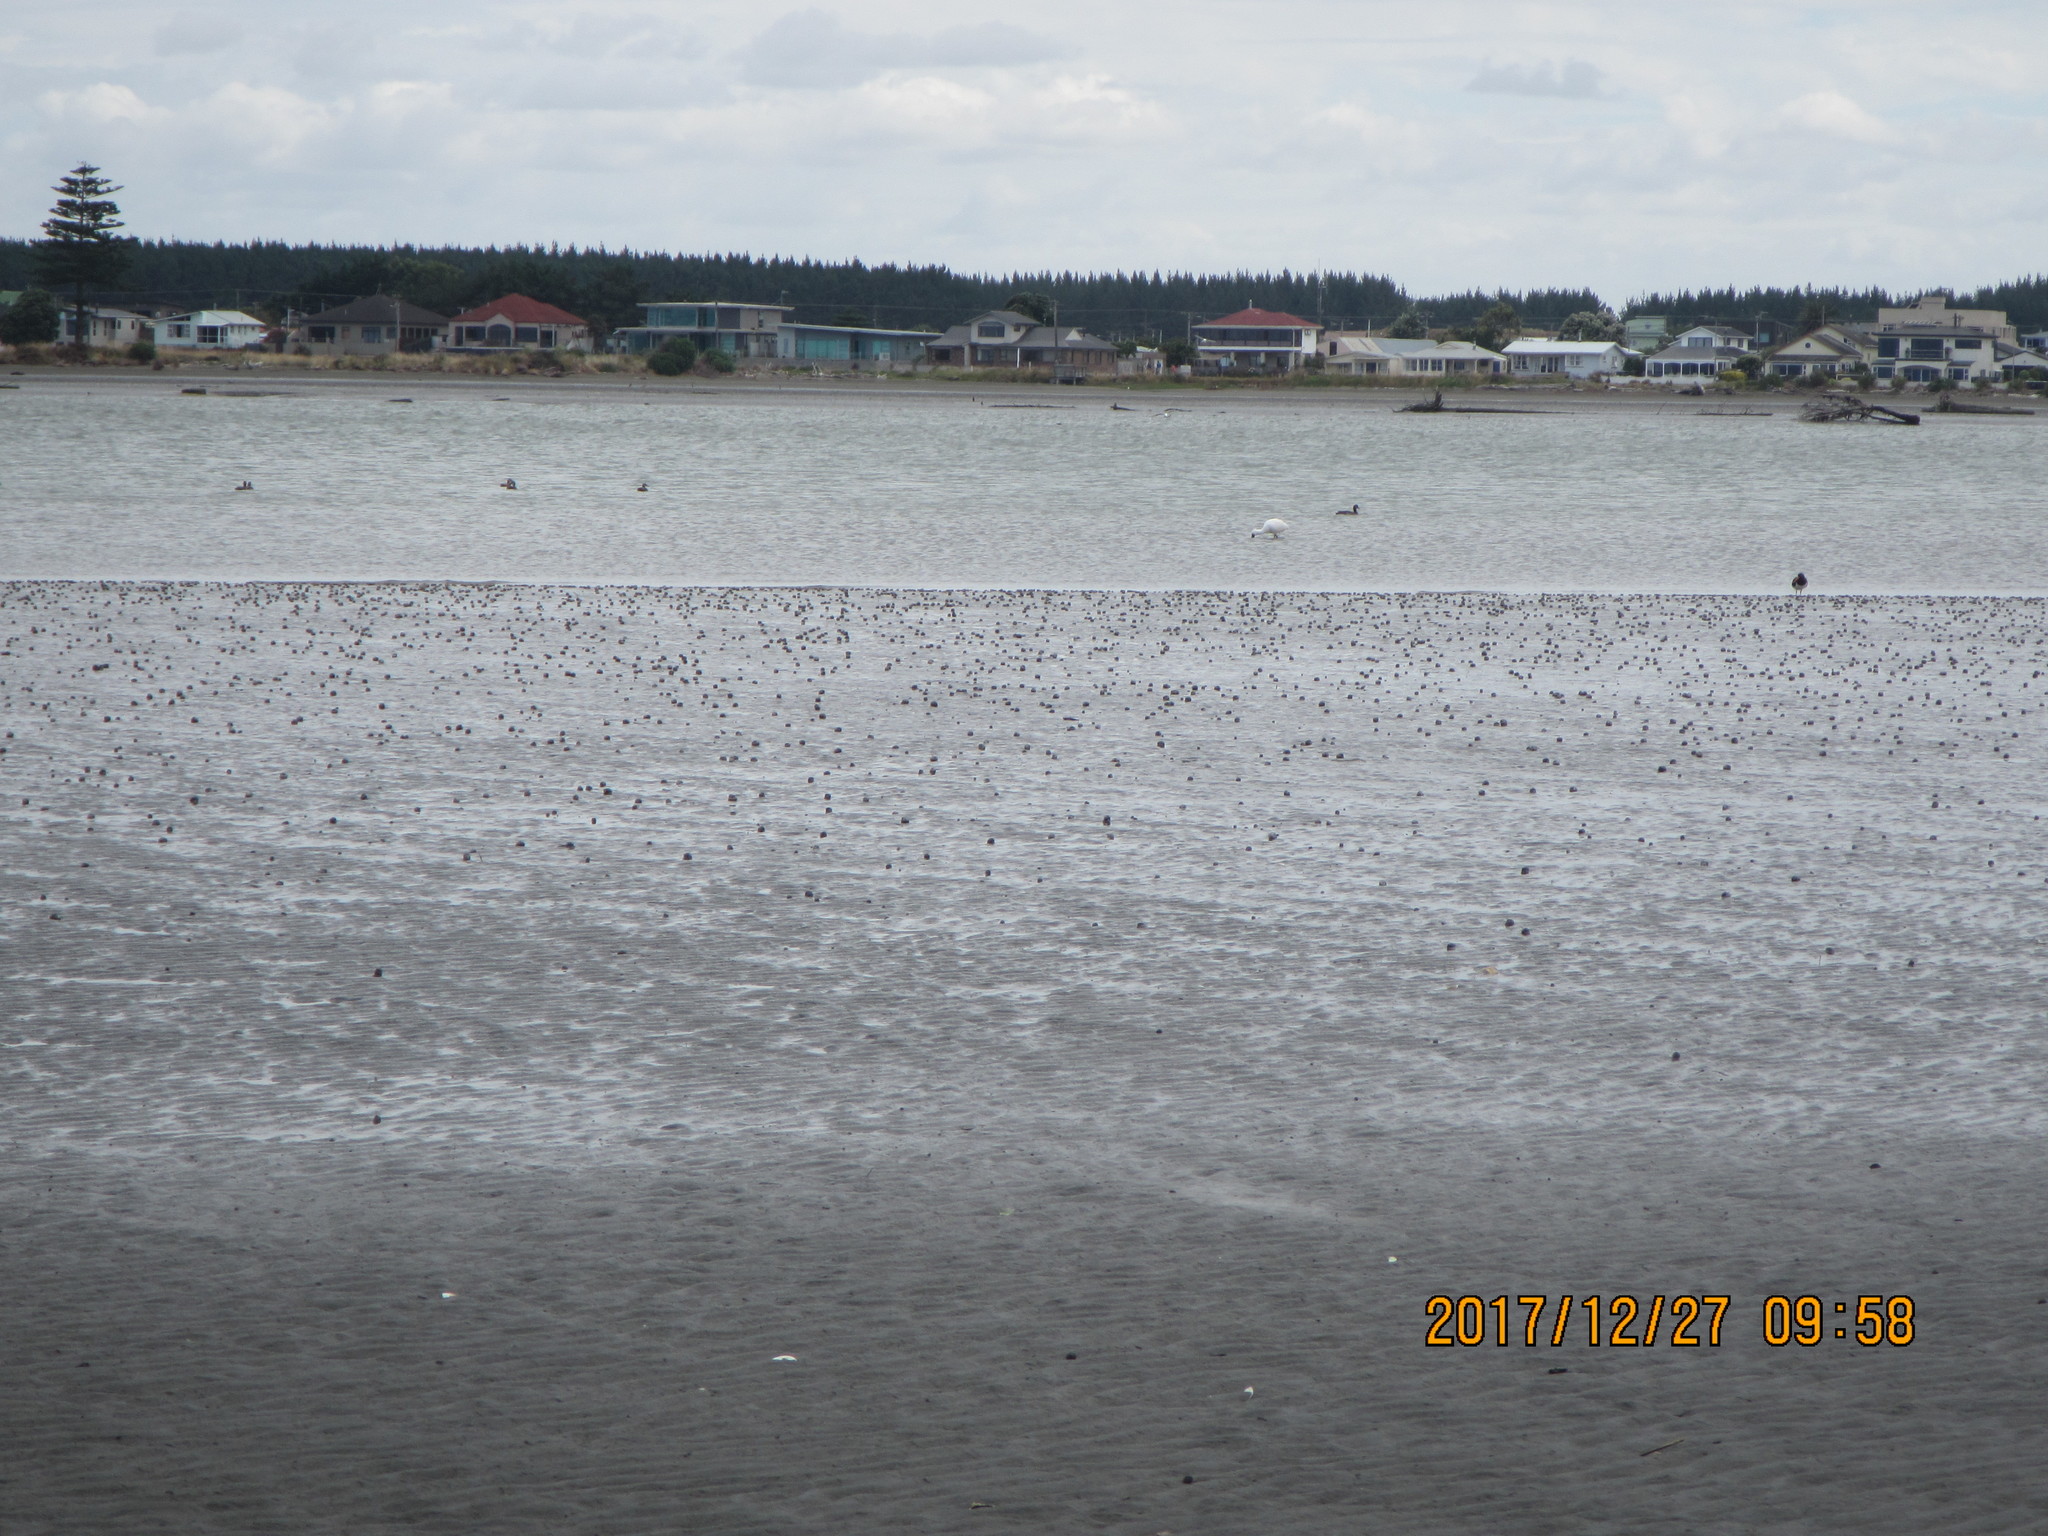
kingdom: Animalia
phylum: Chordata
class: Aves
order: Pelecaniformes
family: Threskiornithidae
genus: Platalea
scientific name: Platalea regia
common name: Royal spoonbill
